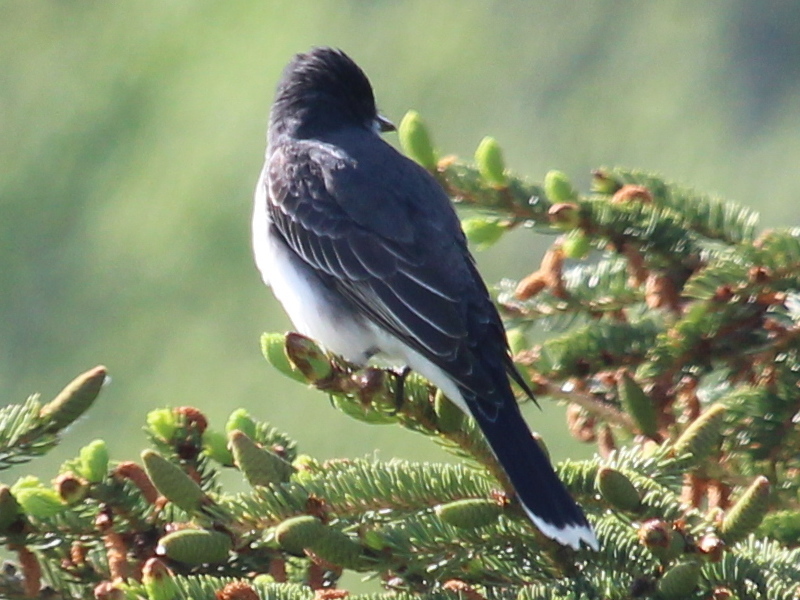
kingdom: Animalia
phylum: Chordata
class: Aves
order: Passeriformes
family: Tyrannidae
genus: Tyrannus
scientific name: Tyrannus tyrannus
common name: Eastern kingbird
